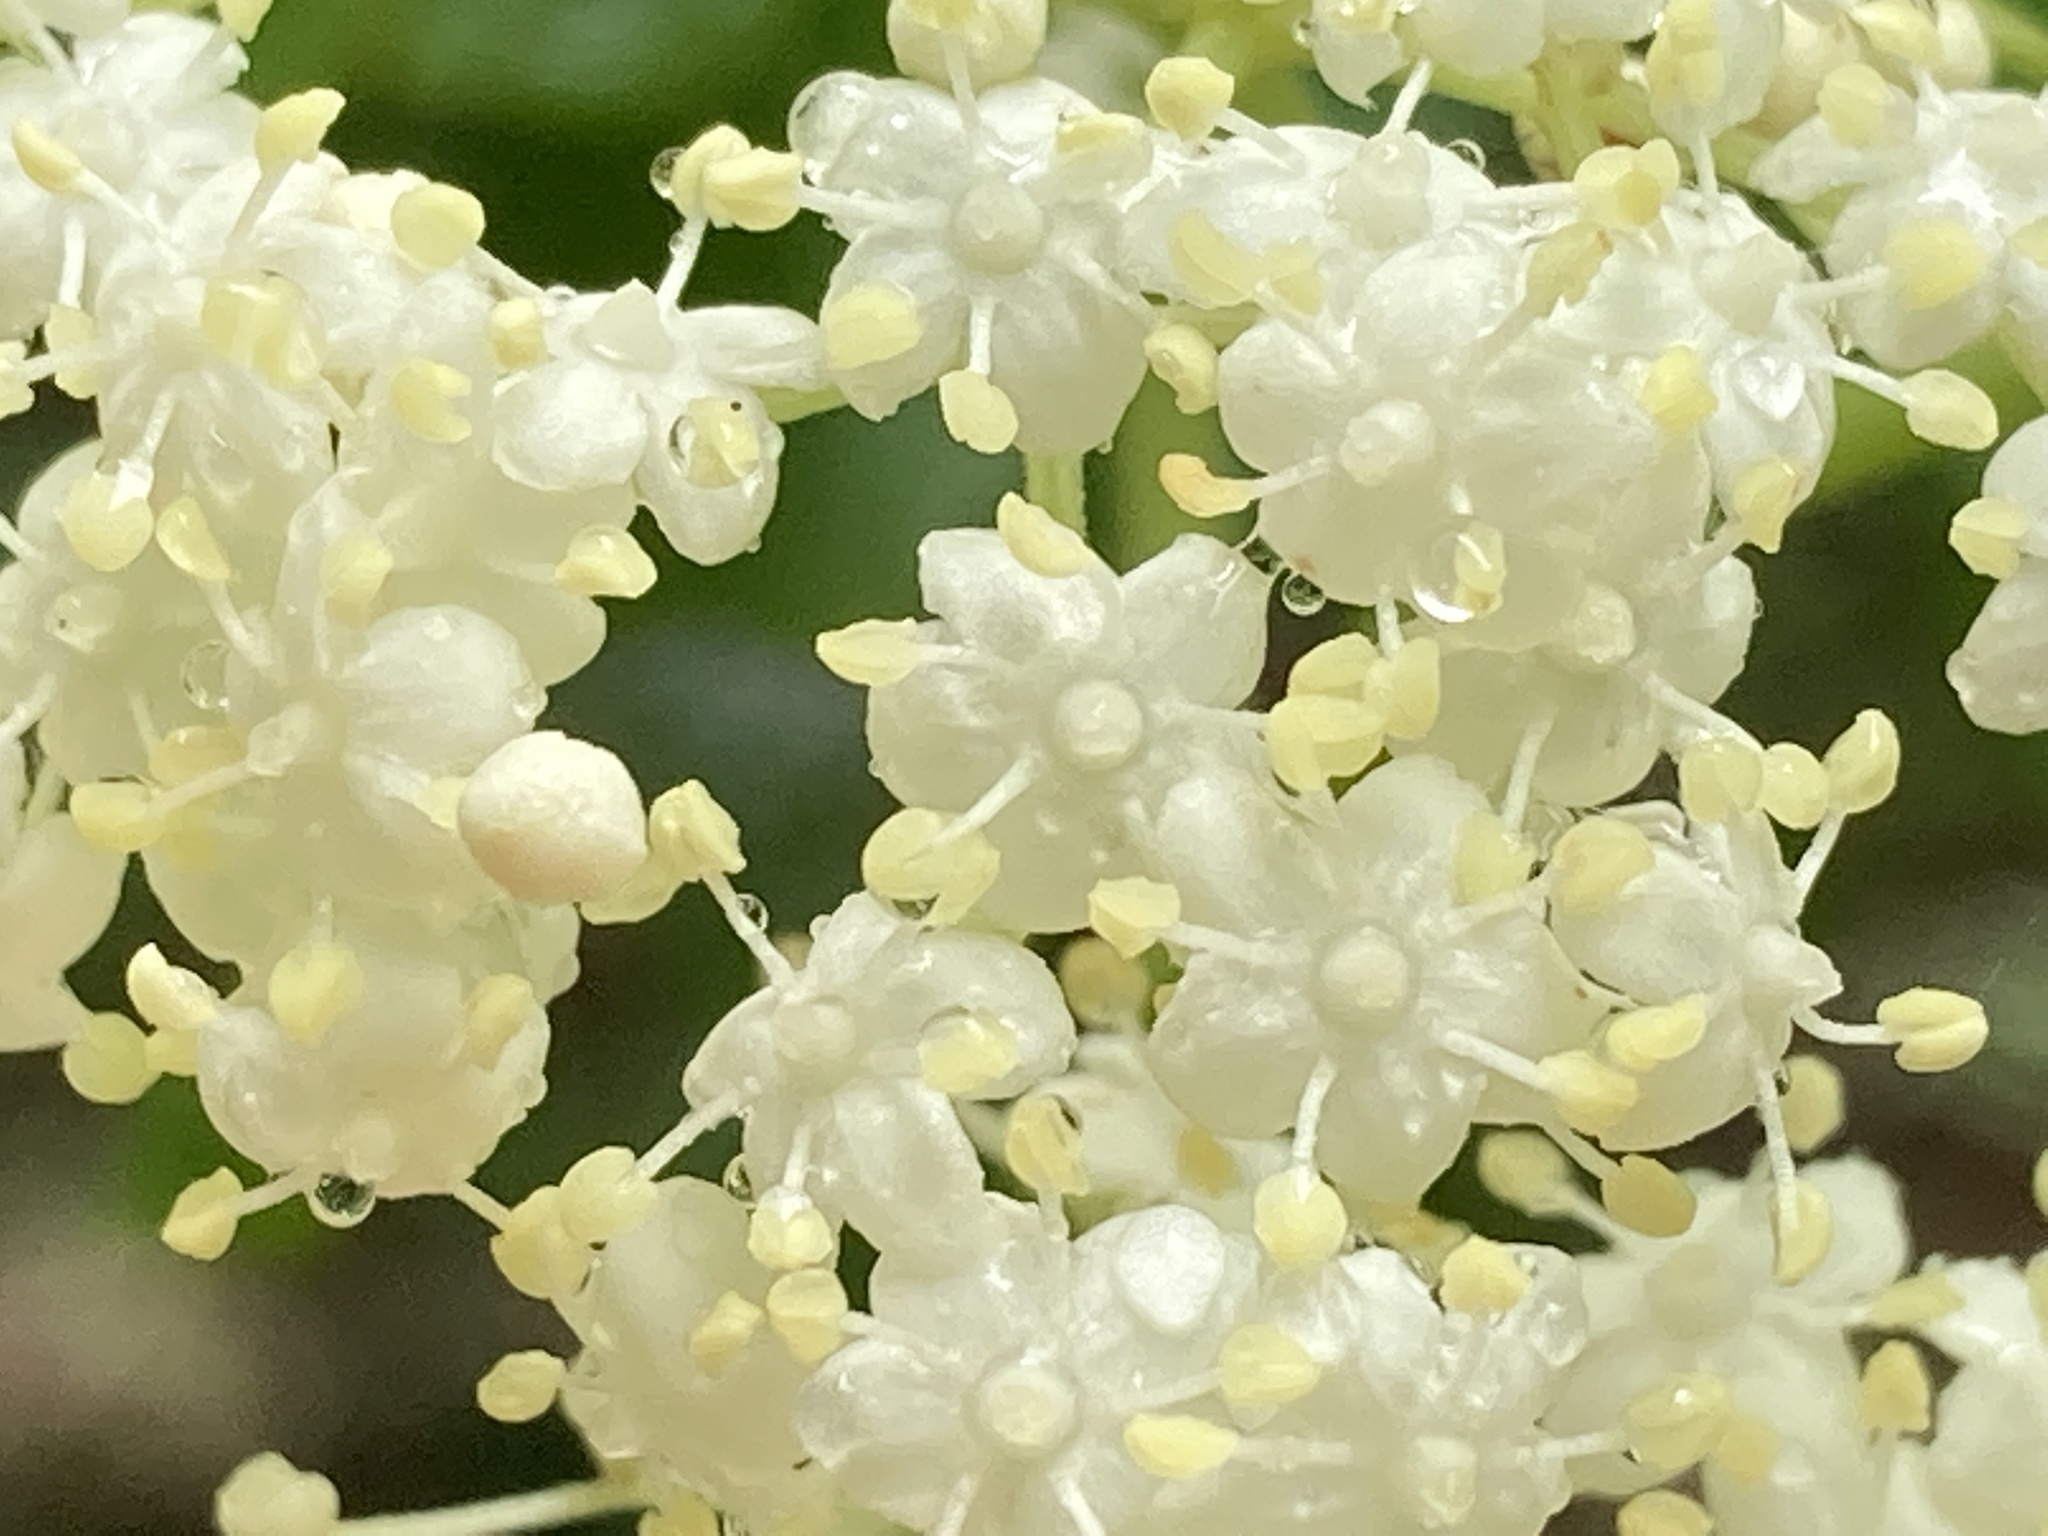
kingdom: Plantae
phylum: Tracheophyta
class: Magnoliopsida
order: Dipsacales
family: Viburnaceae
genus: Sambucus
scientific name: Sambucus canadensis
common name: American elder
